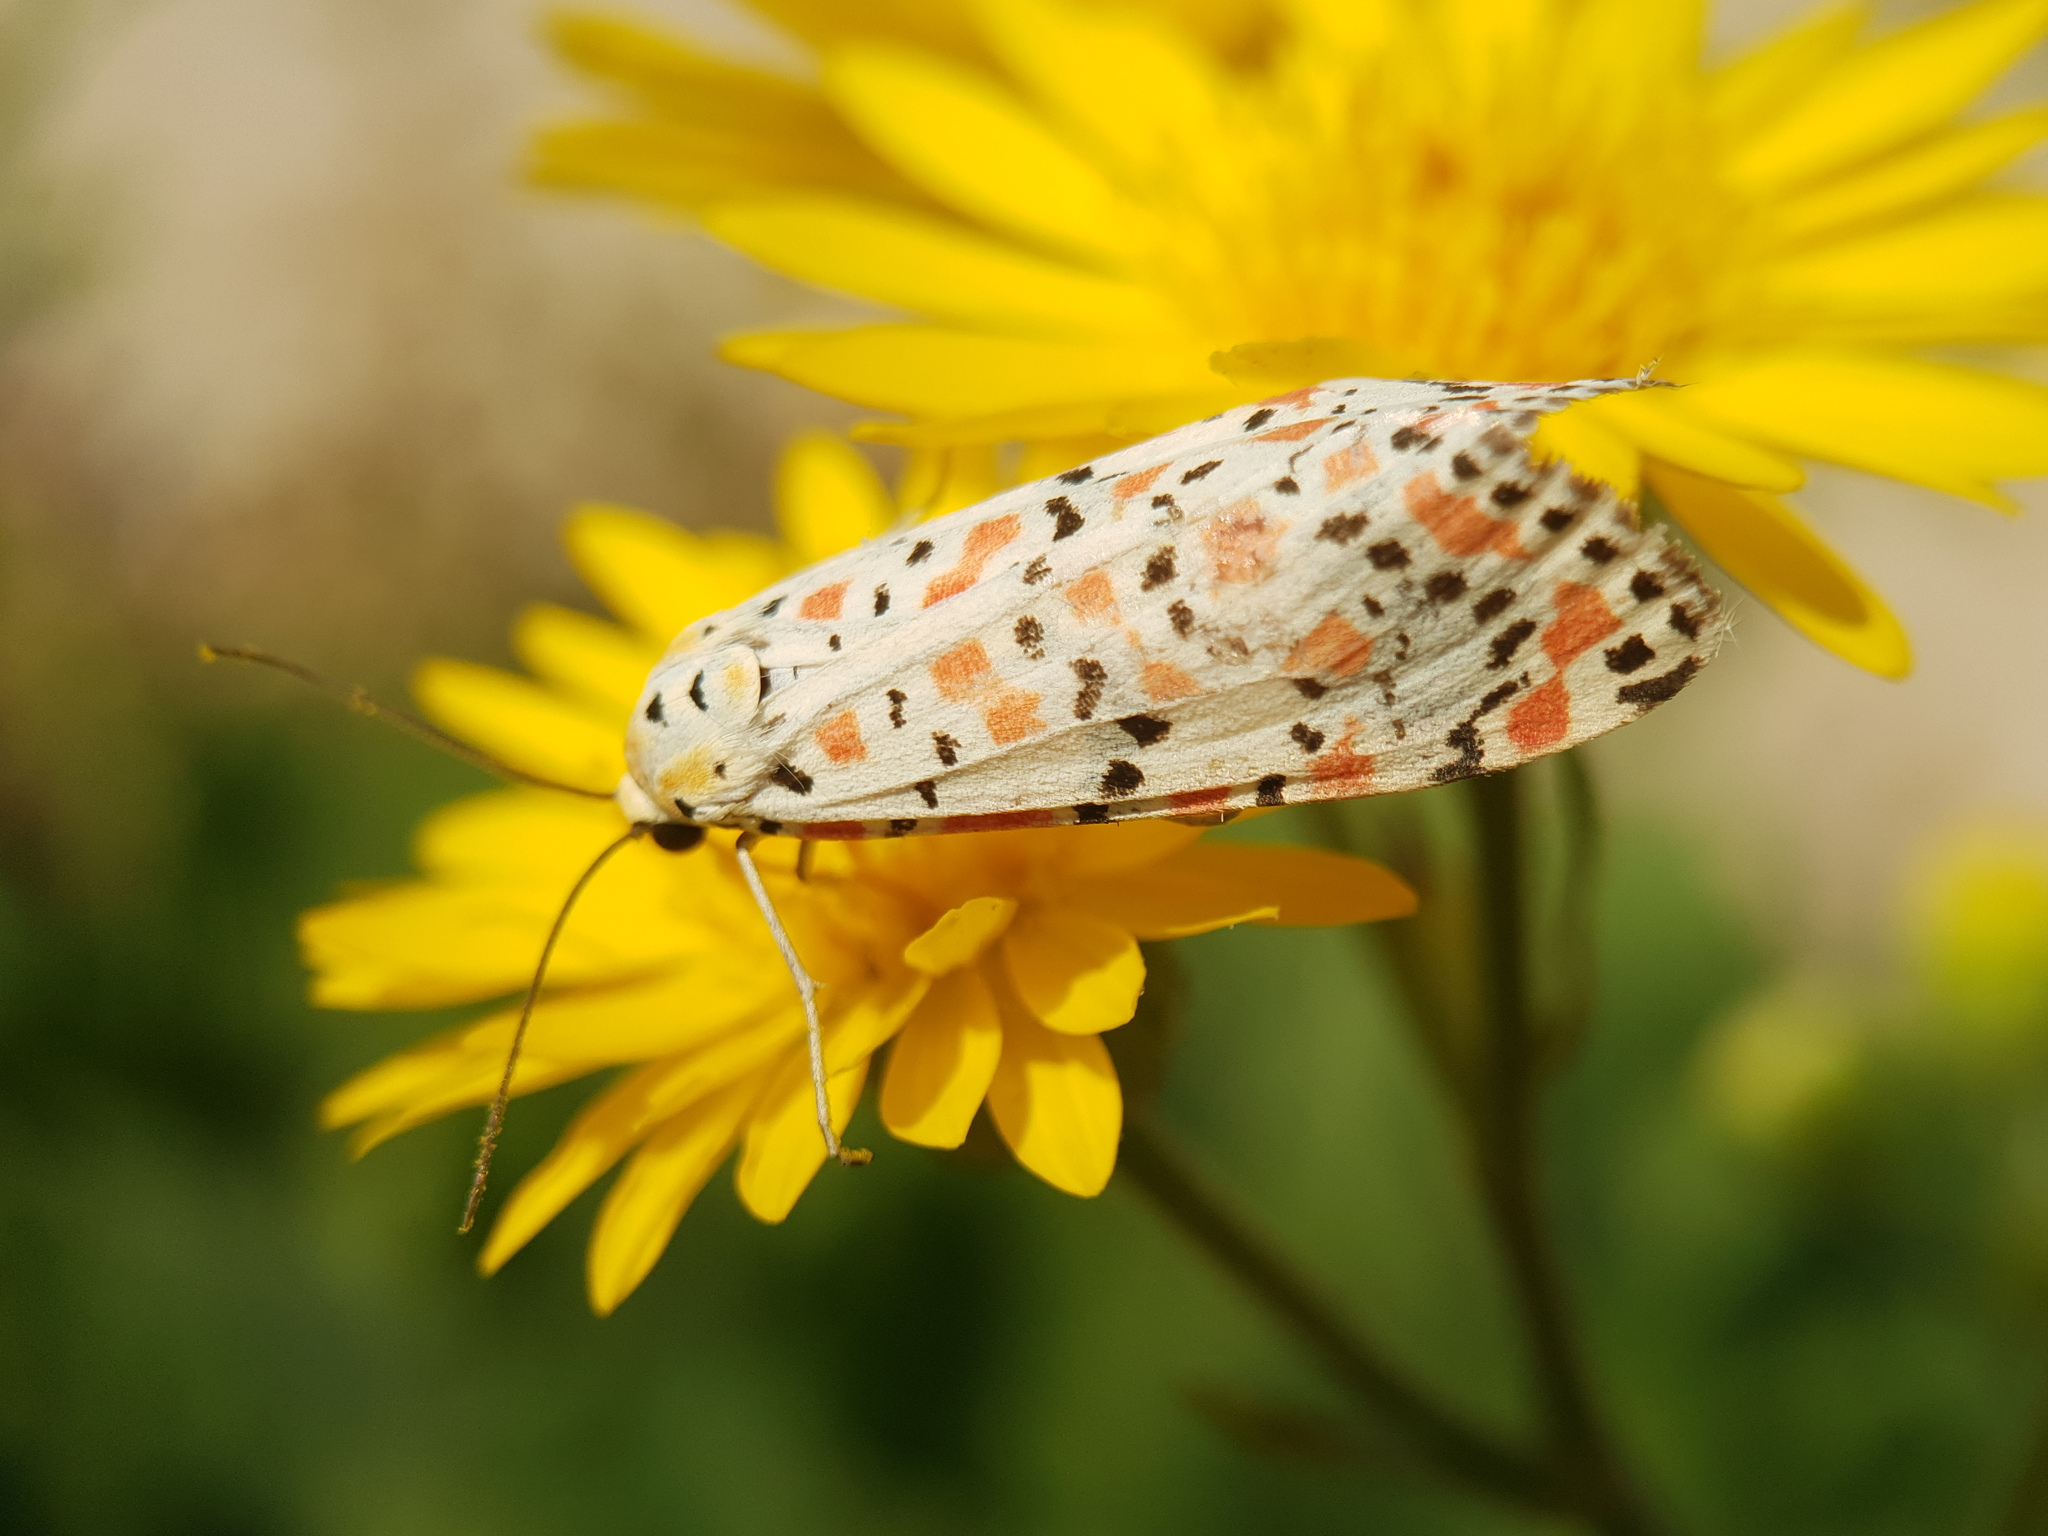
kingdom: Animalia
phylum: Arthropoda
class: Insecta
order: Lepidoptera
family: Erebidae
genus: Utetheisa
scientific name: Utetheisa pulchella
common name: Crimson speckled
